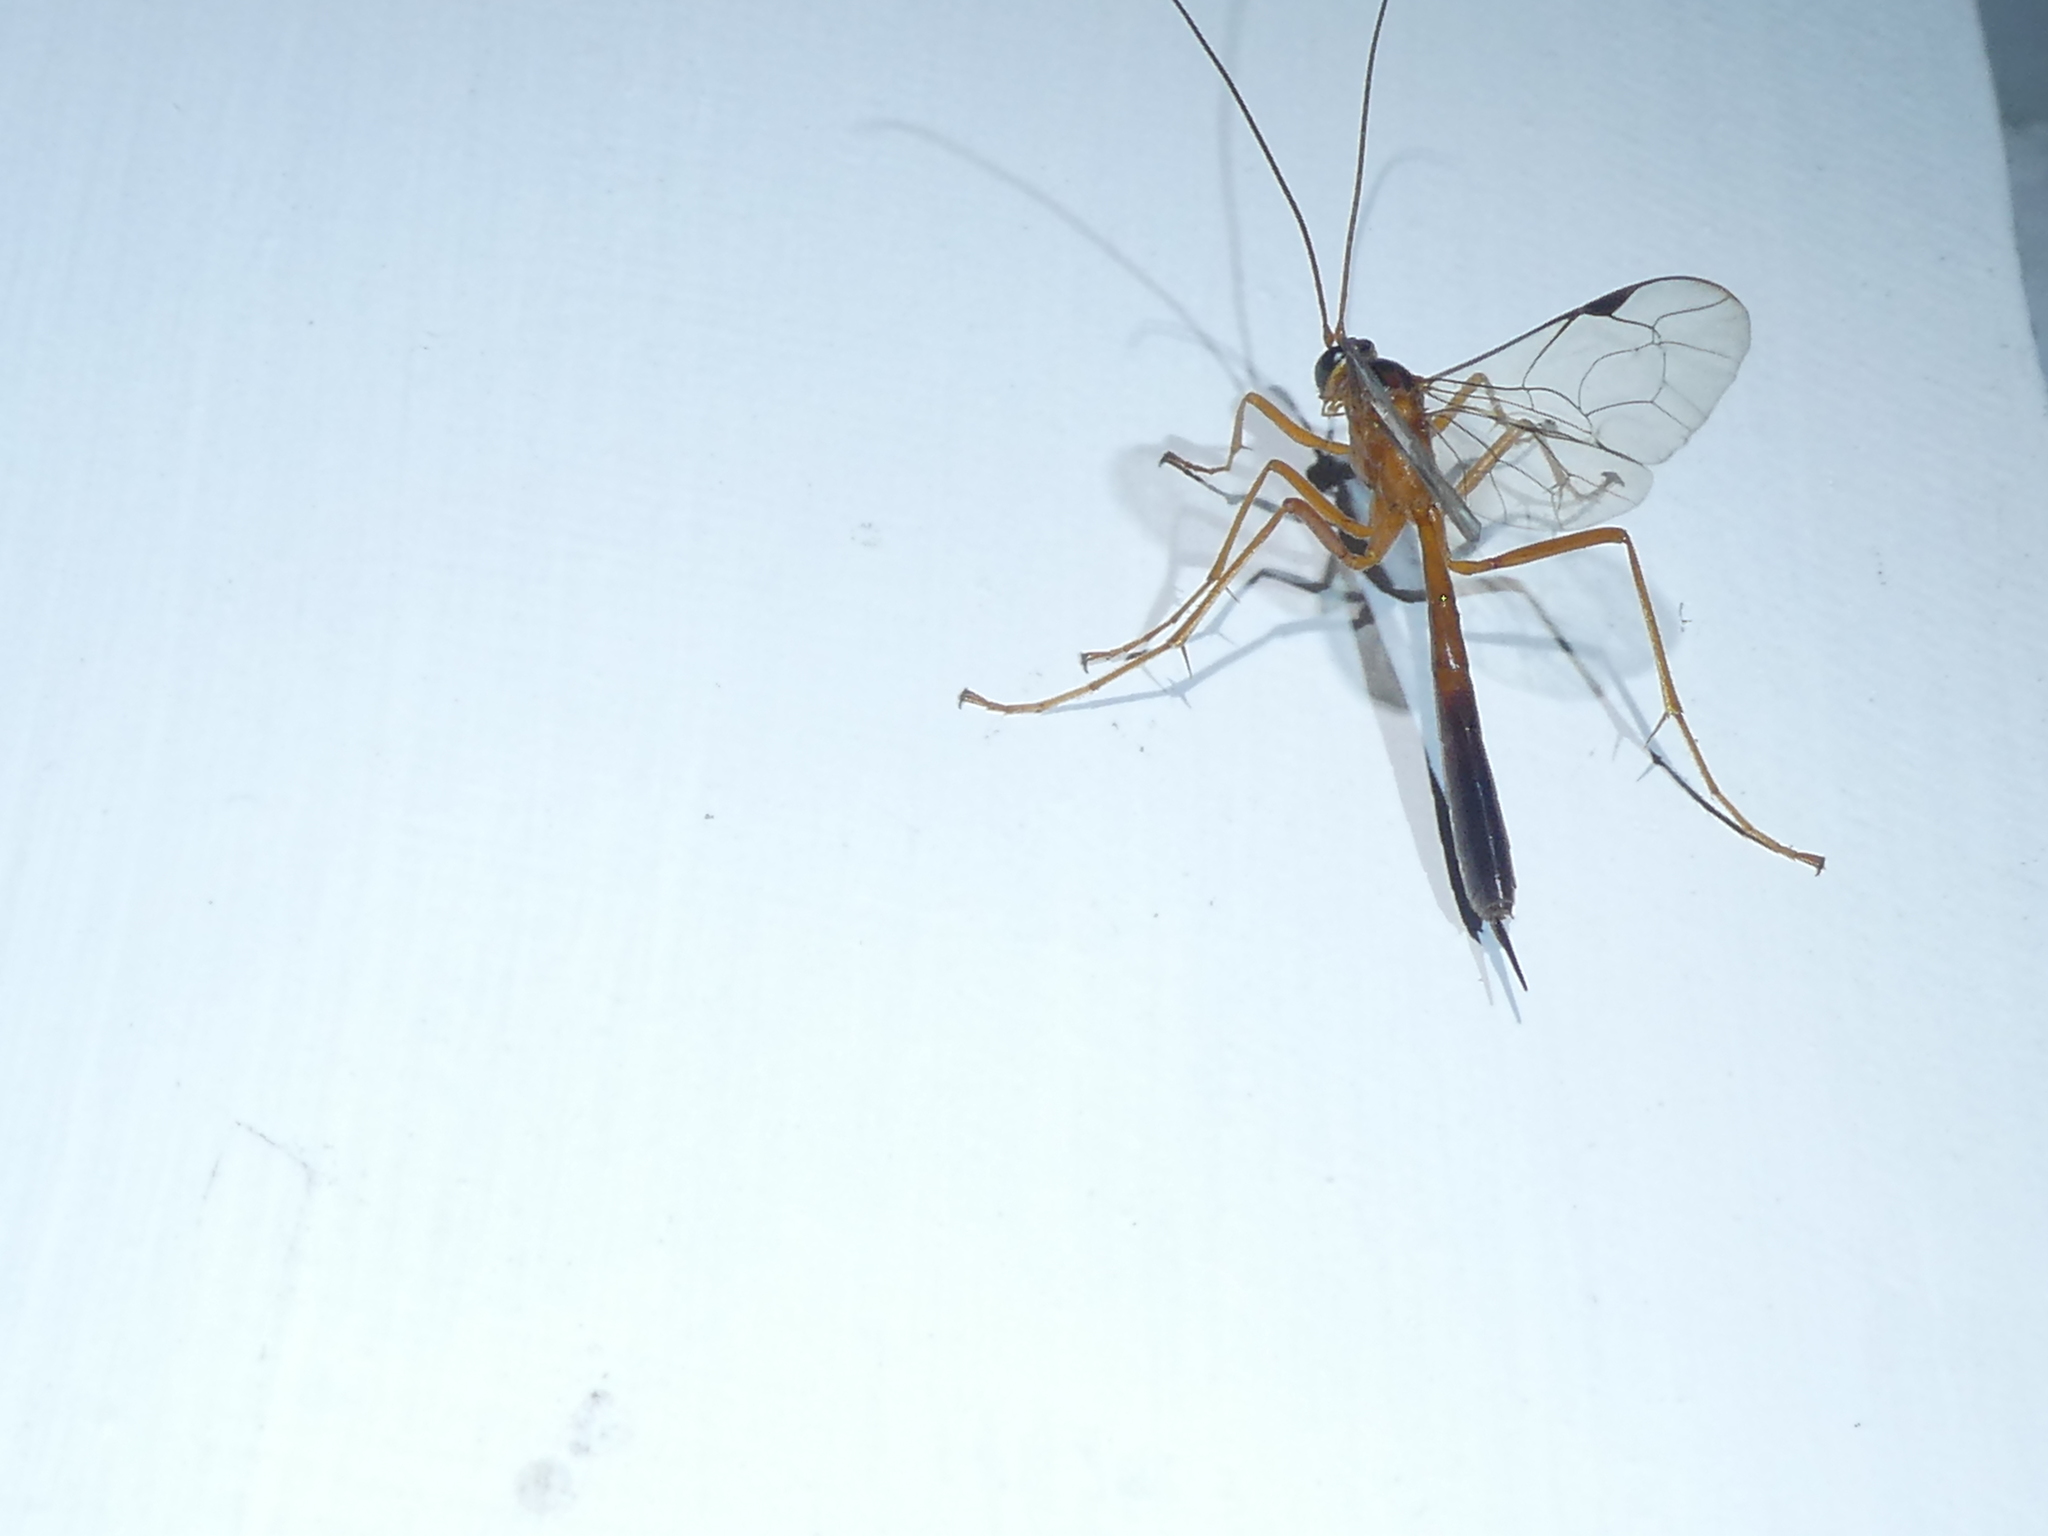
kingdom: Animalia
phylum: Arthropoda
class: Insecta
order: Hymenoptera
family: Ichneumonidae
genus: Netelia
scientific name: Netelia ephippiata
